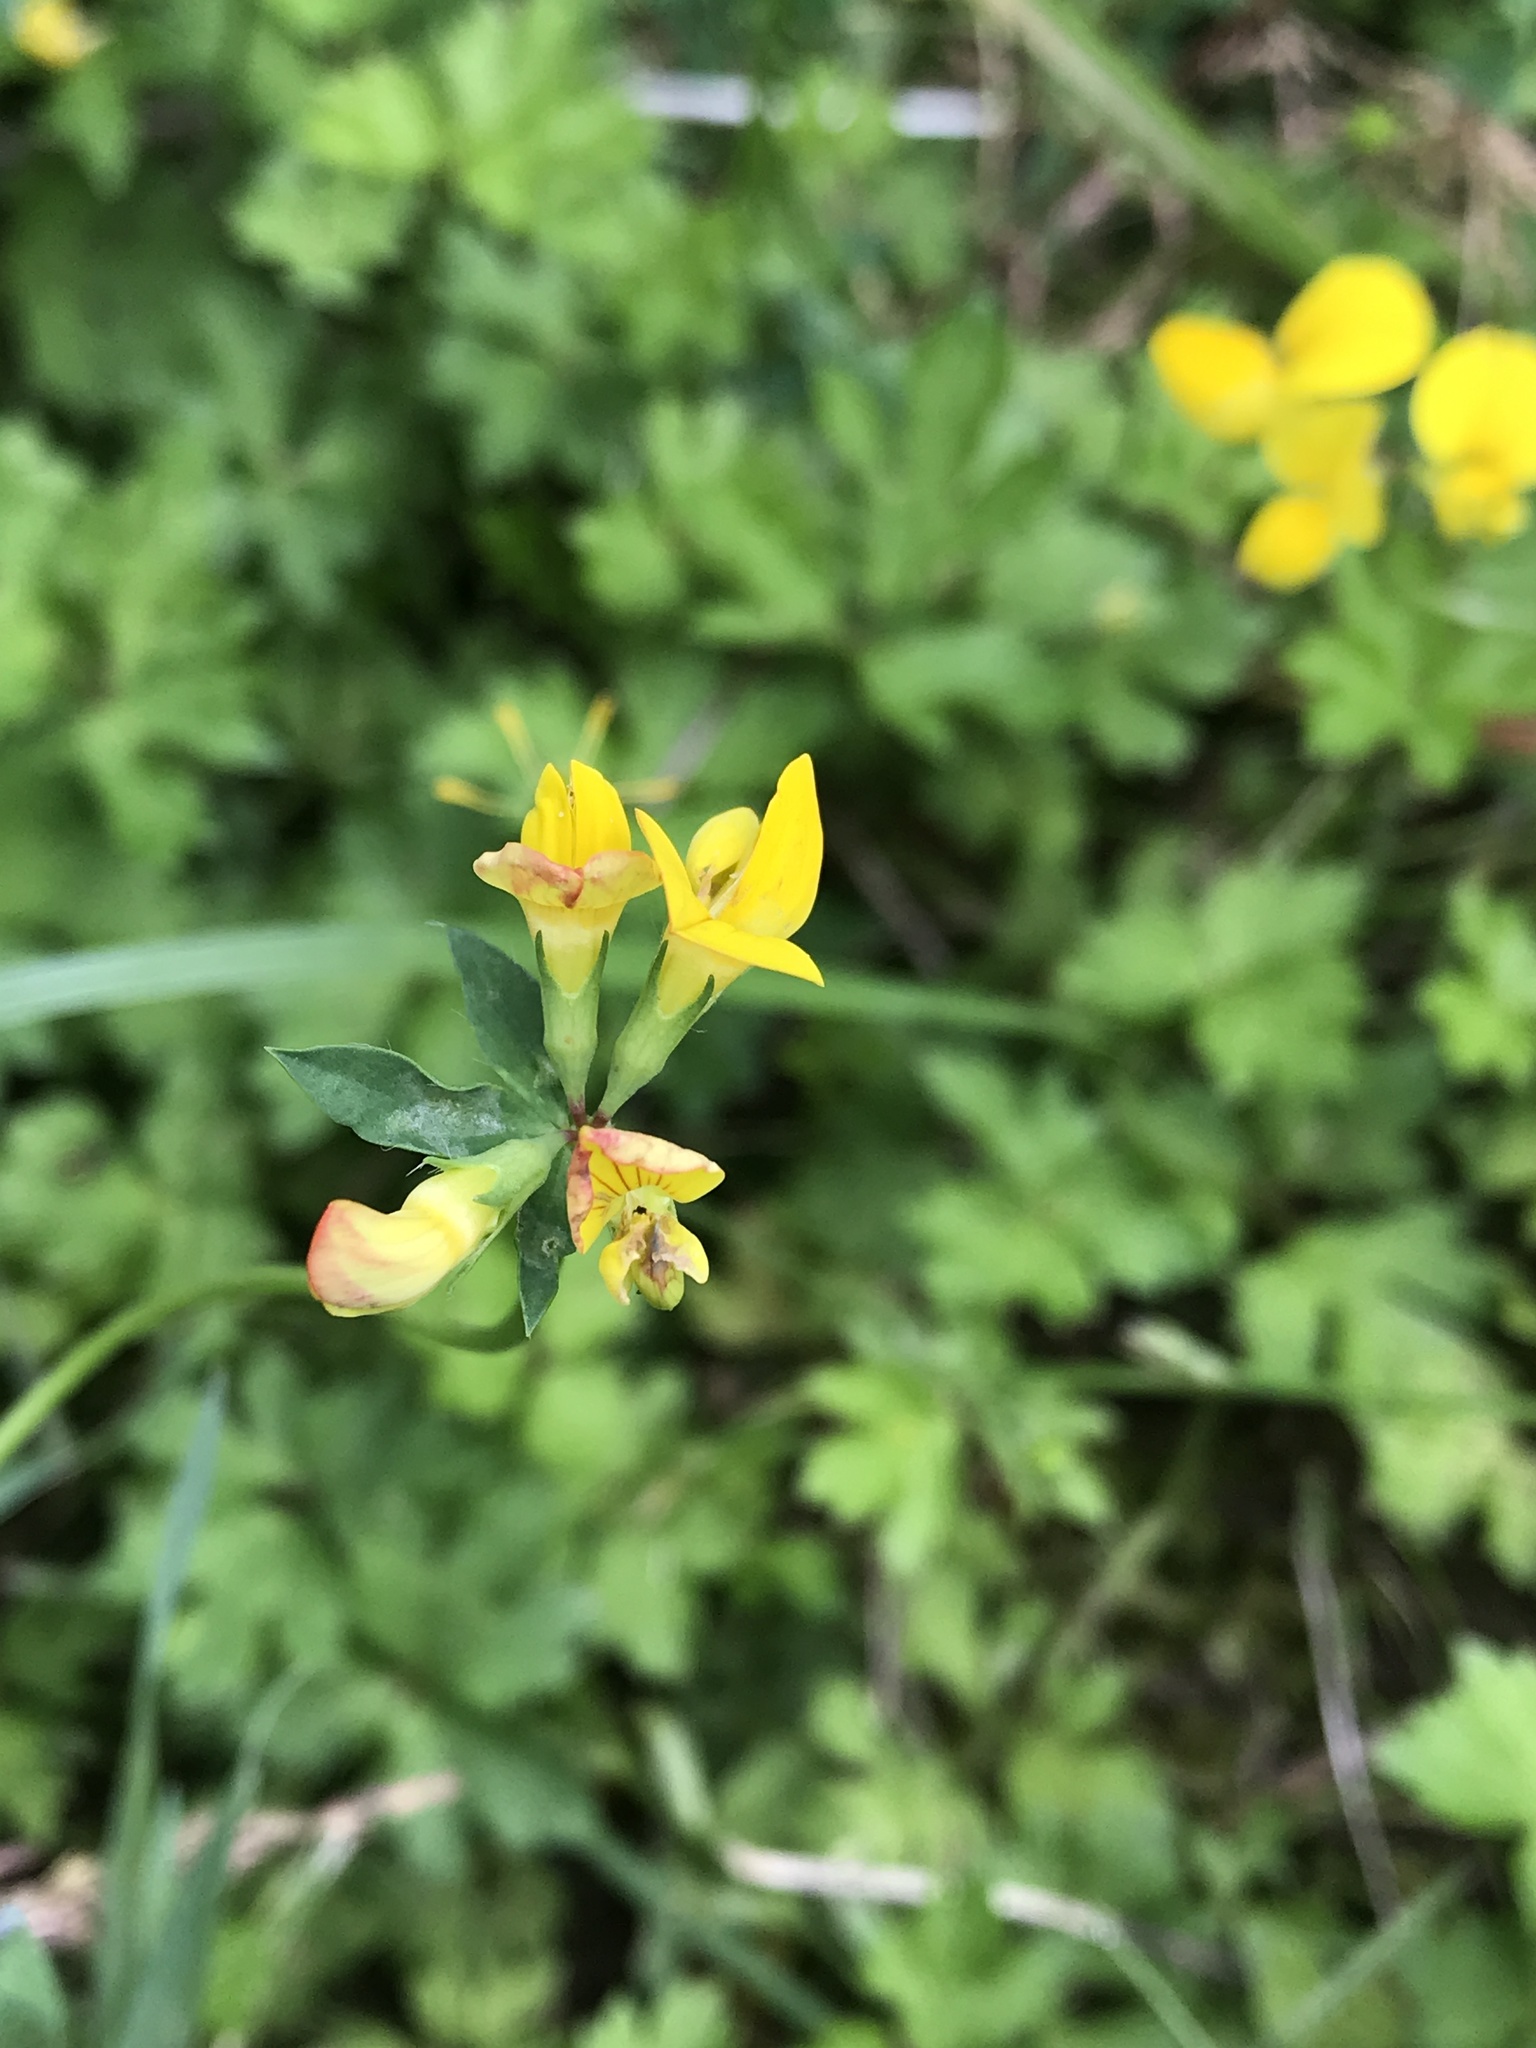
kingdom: Plantae
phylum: Tracheophyta
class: Magnoliopsida
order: Fabales
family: Fabaceae
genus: Lotus
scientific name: Lotus corniculatus
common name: Common bird's-foot-trefoil
